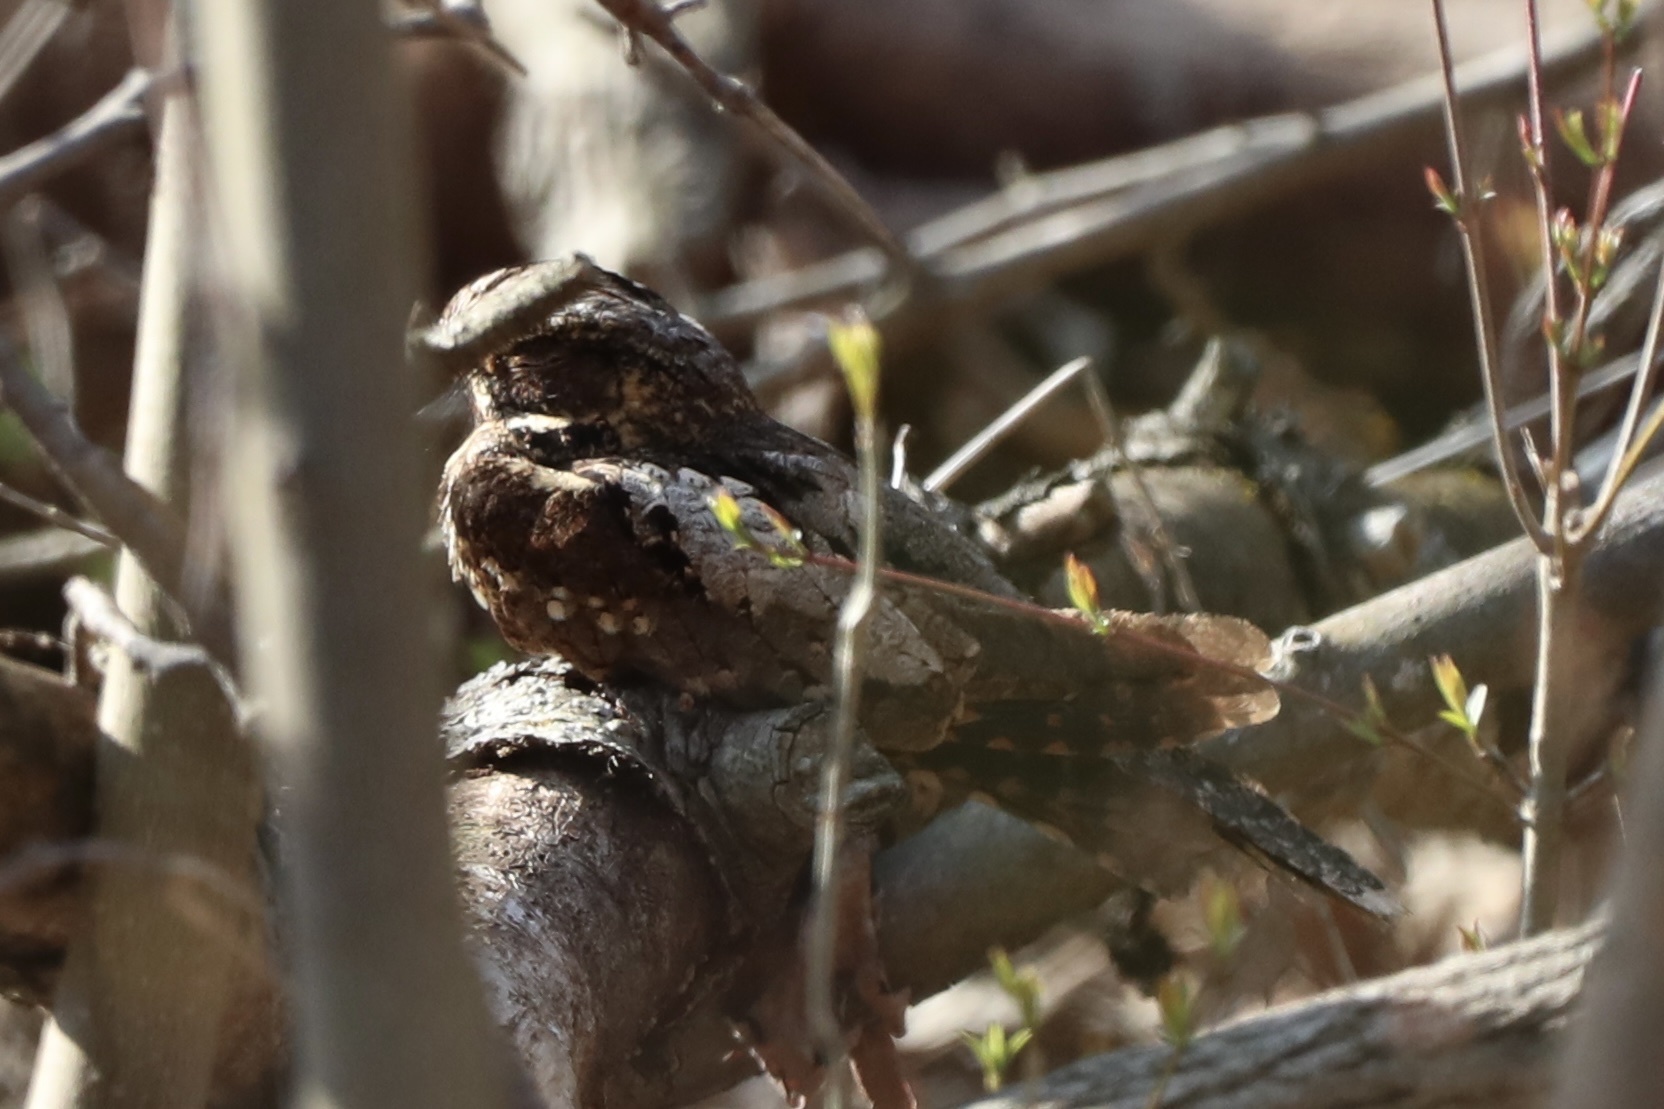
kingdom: Animalia
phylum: Chordata
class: Aves
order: Caprimulgiformes
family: Caprimulgidae
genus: Antrostomus
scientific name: Antrostomus vociferus
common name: Eastern whip-poor-will
